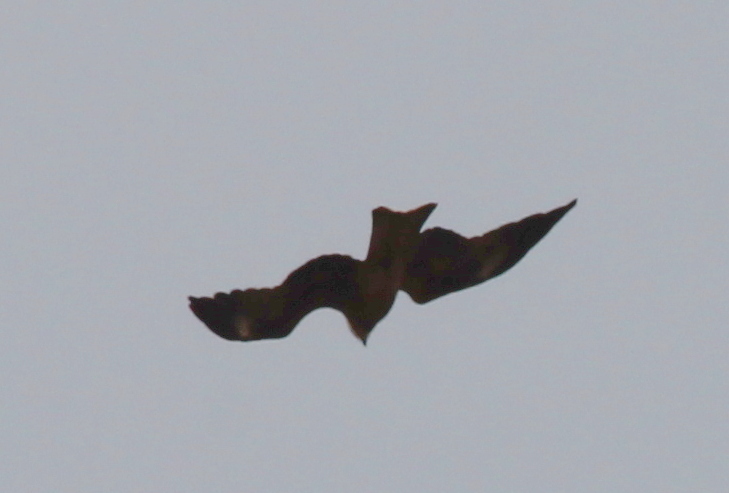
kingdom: Animalia
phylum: Chordata
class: Aves
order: Accipitriformes
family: Accipitridae
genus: Milvus
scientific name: Milvus migrans
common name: Black kite
